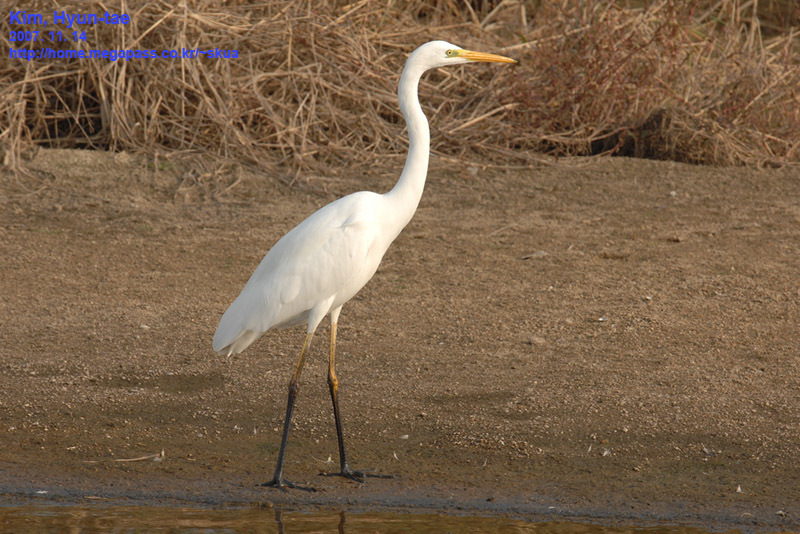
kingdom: Animalia
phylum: Chordata
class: Aves
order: Pelecaniformes
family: Ardeidae
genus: Ardea
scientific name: Ardea alba
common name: Great egret
